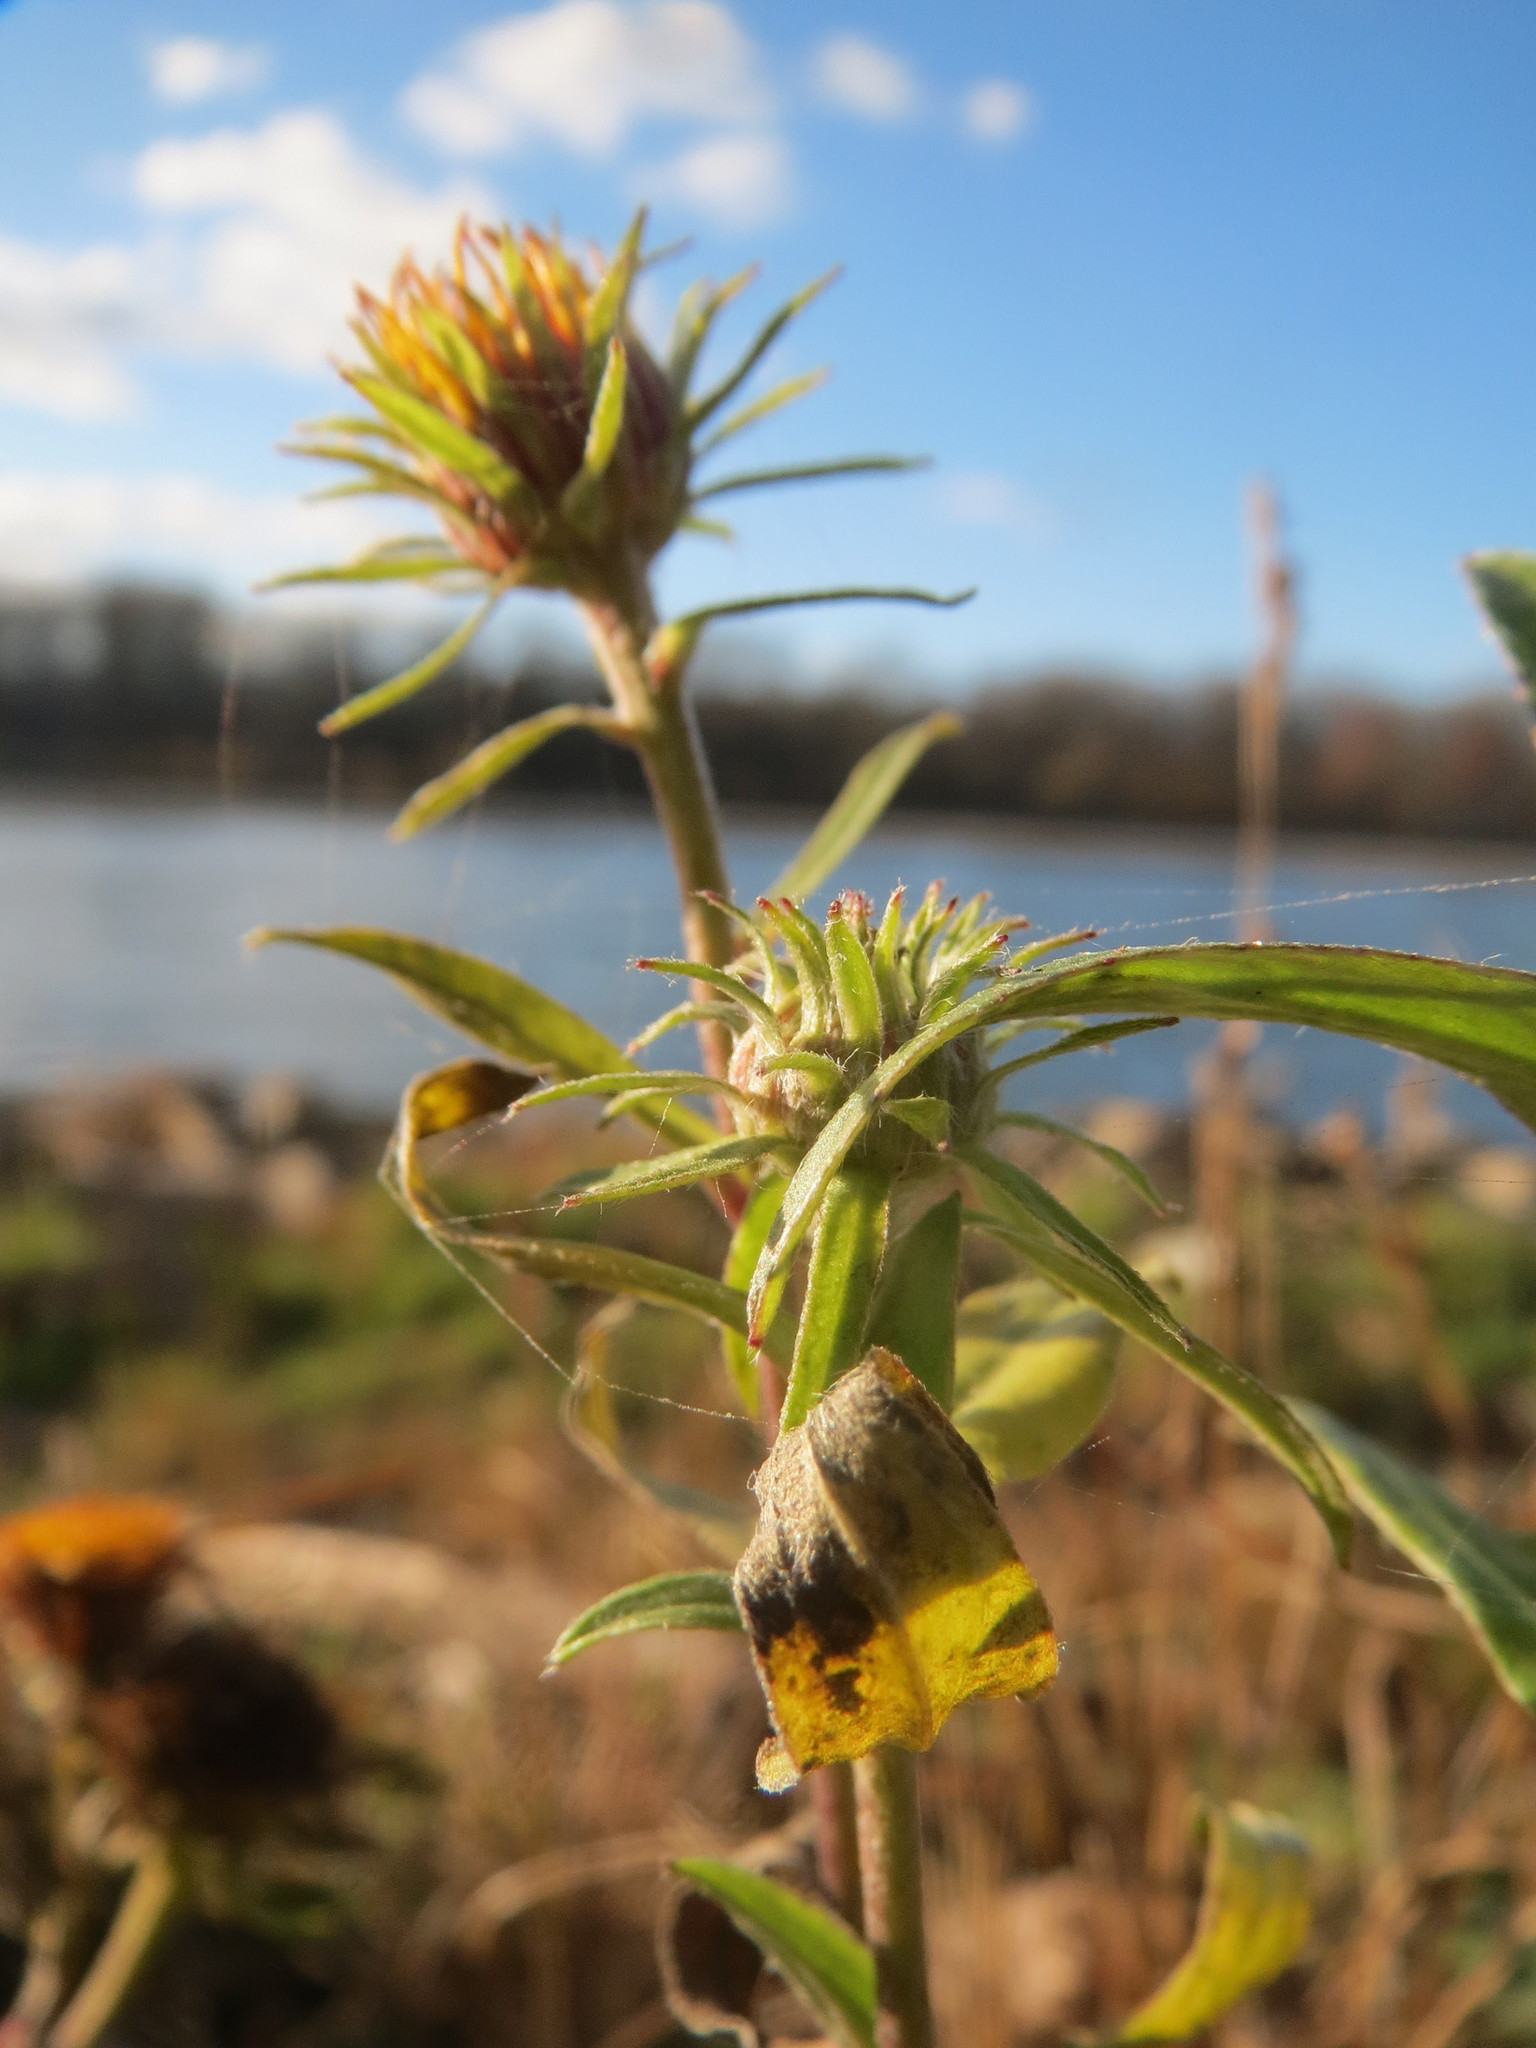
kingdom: Plantae
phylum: Tracheophyta
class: Magnoliopsida
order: Asterales
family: Asteraceae
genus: Pentanema
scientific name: Pentanema britannicum
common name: British elecampane
